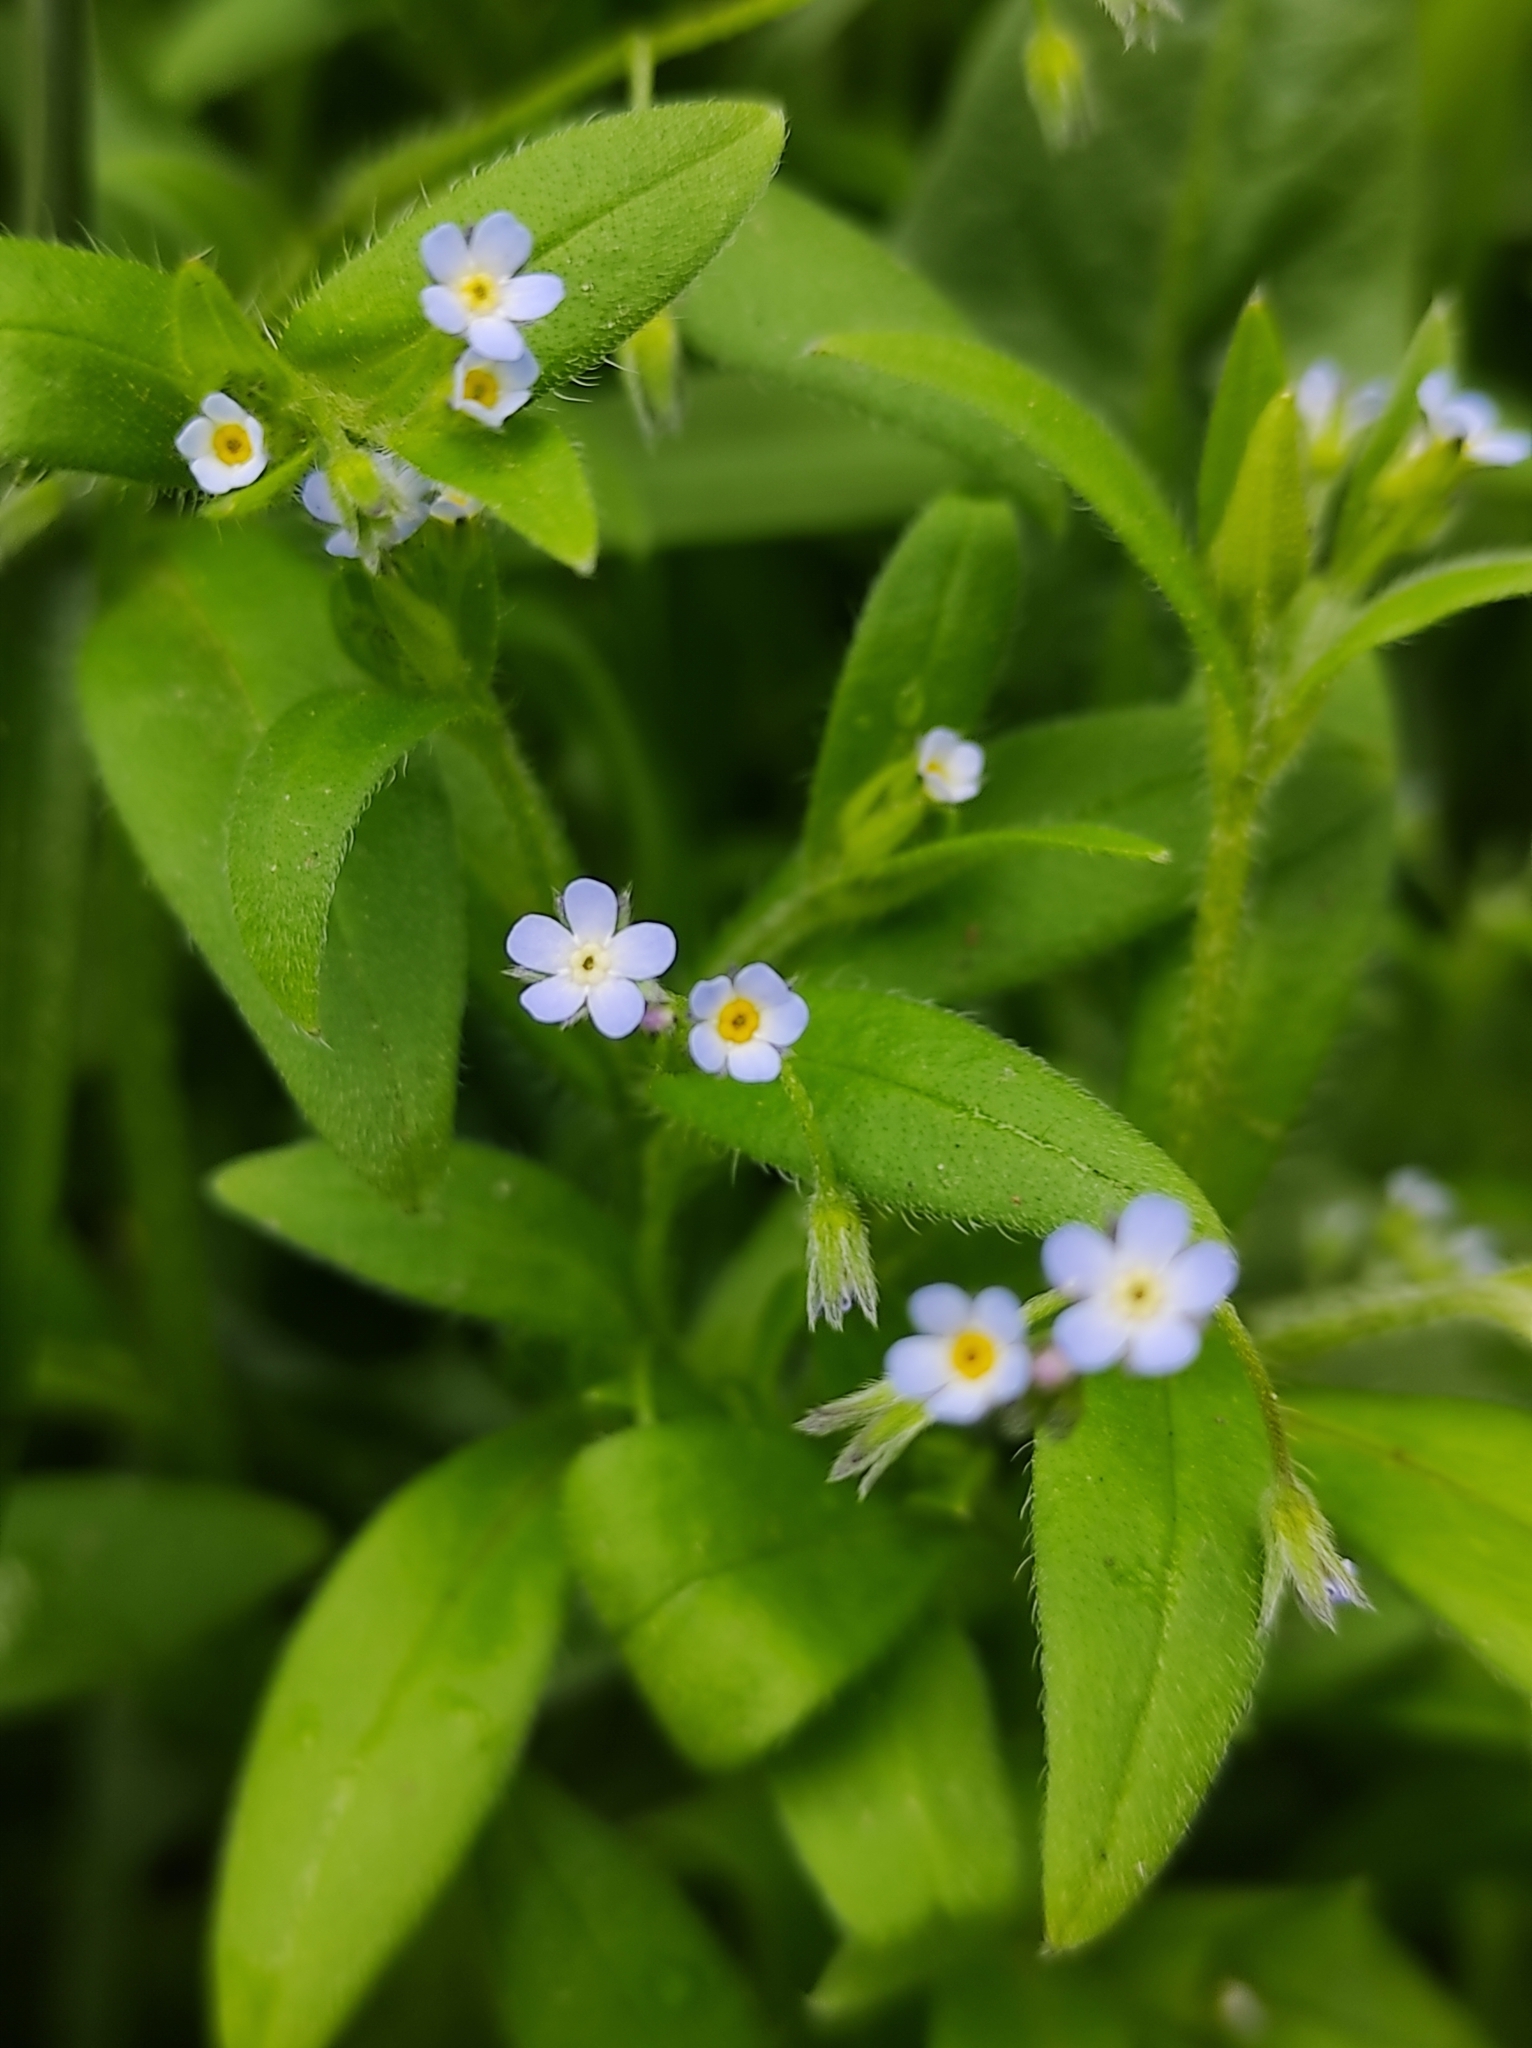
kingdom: Plantae
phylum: Tracheophyta
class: Magnoliopsida
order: Boraginales
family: Boraginaceae
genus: Myosotis
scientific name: Myosotis sparsiflora
